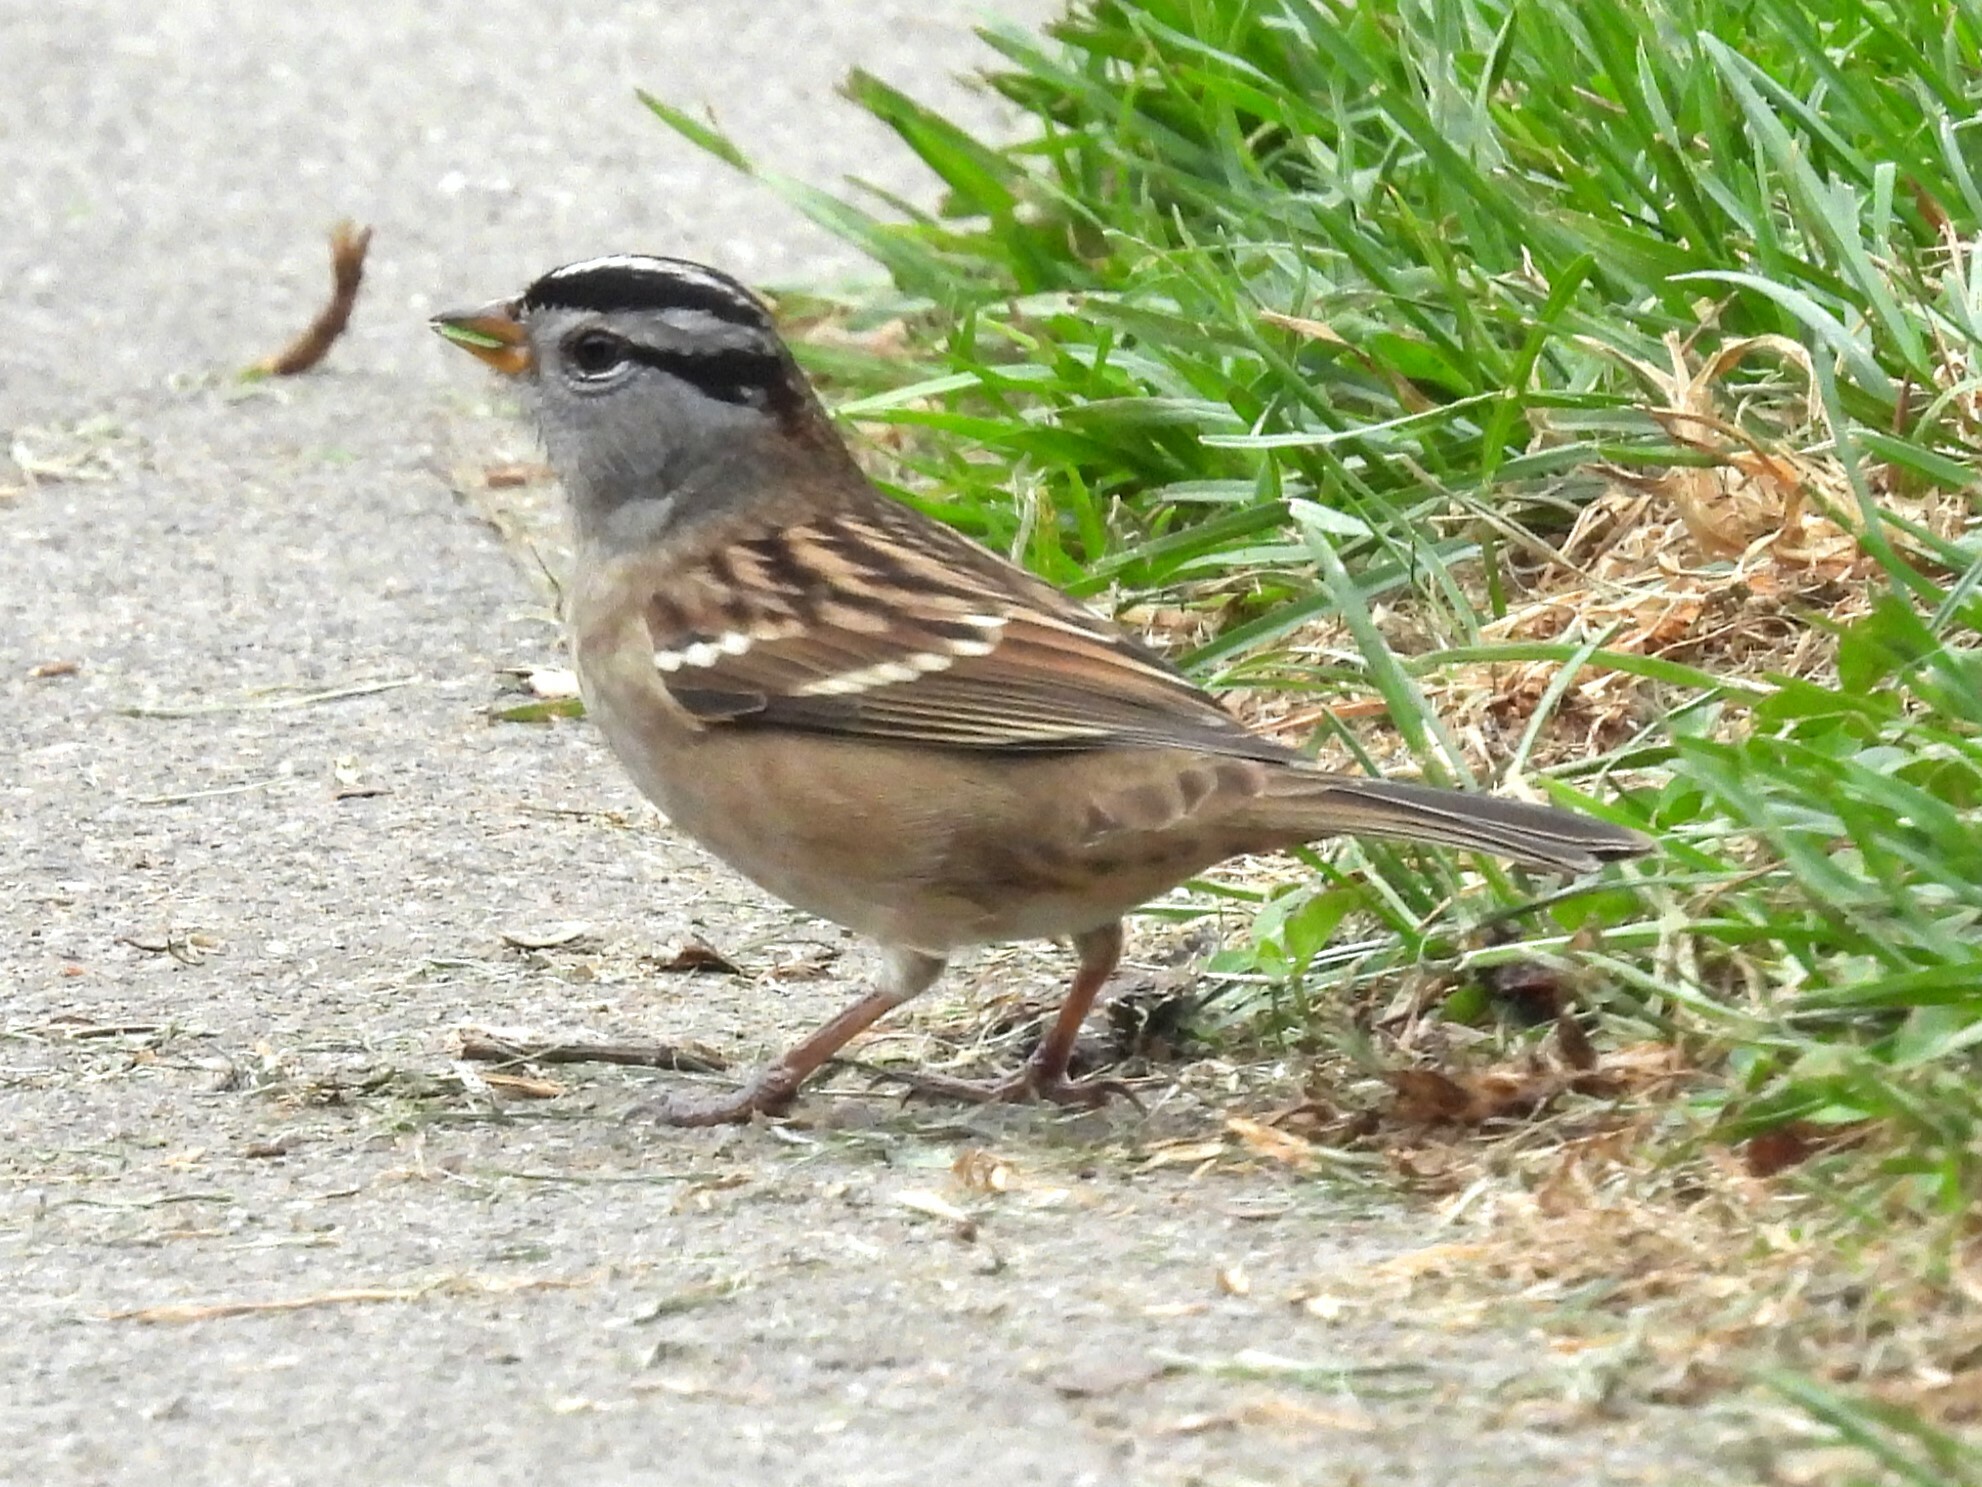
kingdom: Animalia
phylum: Chordata
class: Aves
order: Passeriformes
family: Passerellidae
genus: Zonotrichia
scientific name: Zonotrichia leucophrys
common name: White-crowned sparrow
